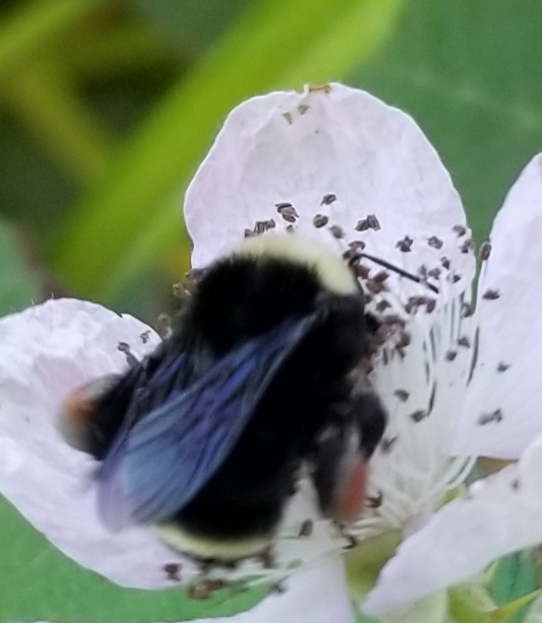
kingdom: Animalia
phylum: Arthropoda
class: Insecta
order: Hymenoptera
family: Apidae
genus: Bombus
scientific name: Bombus
